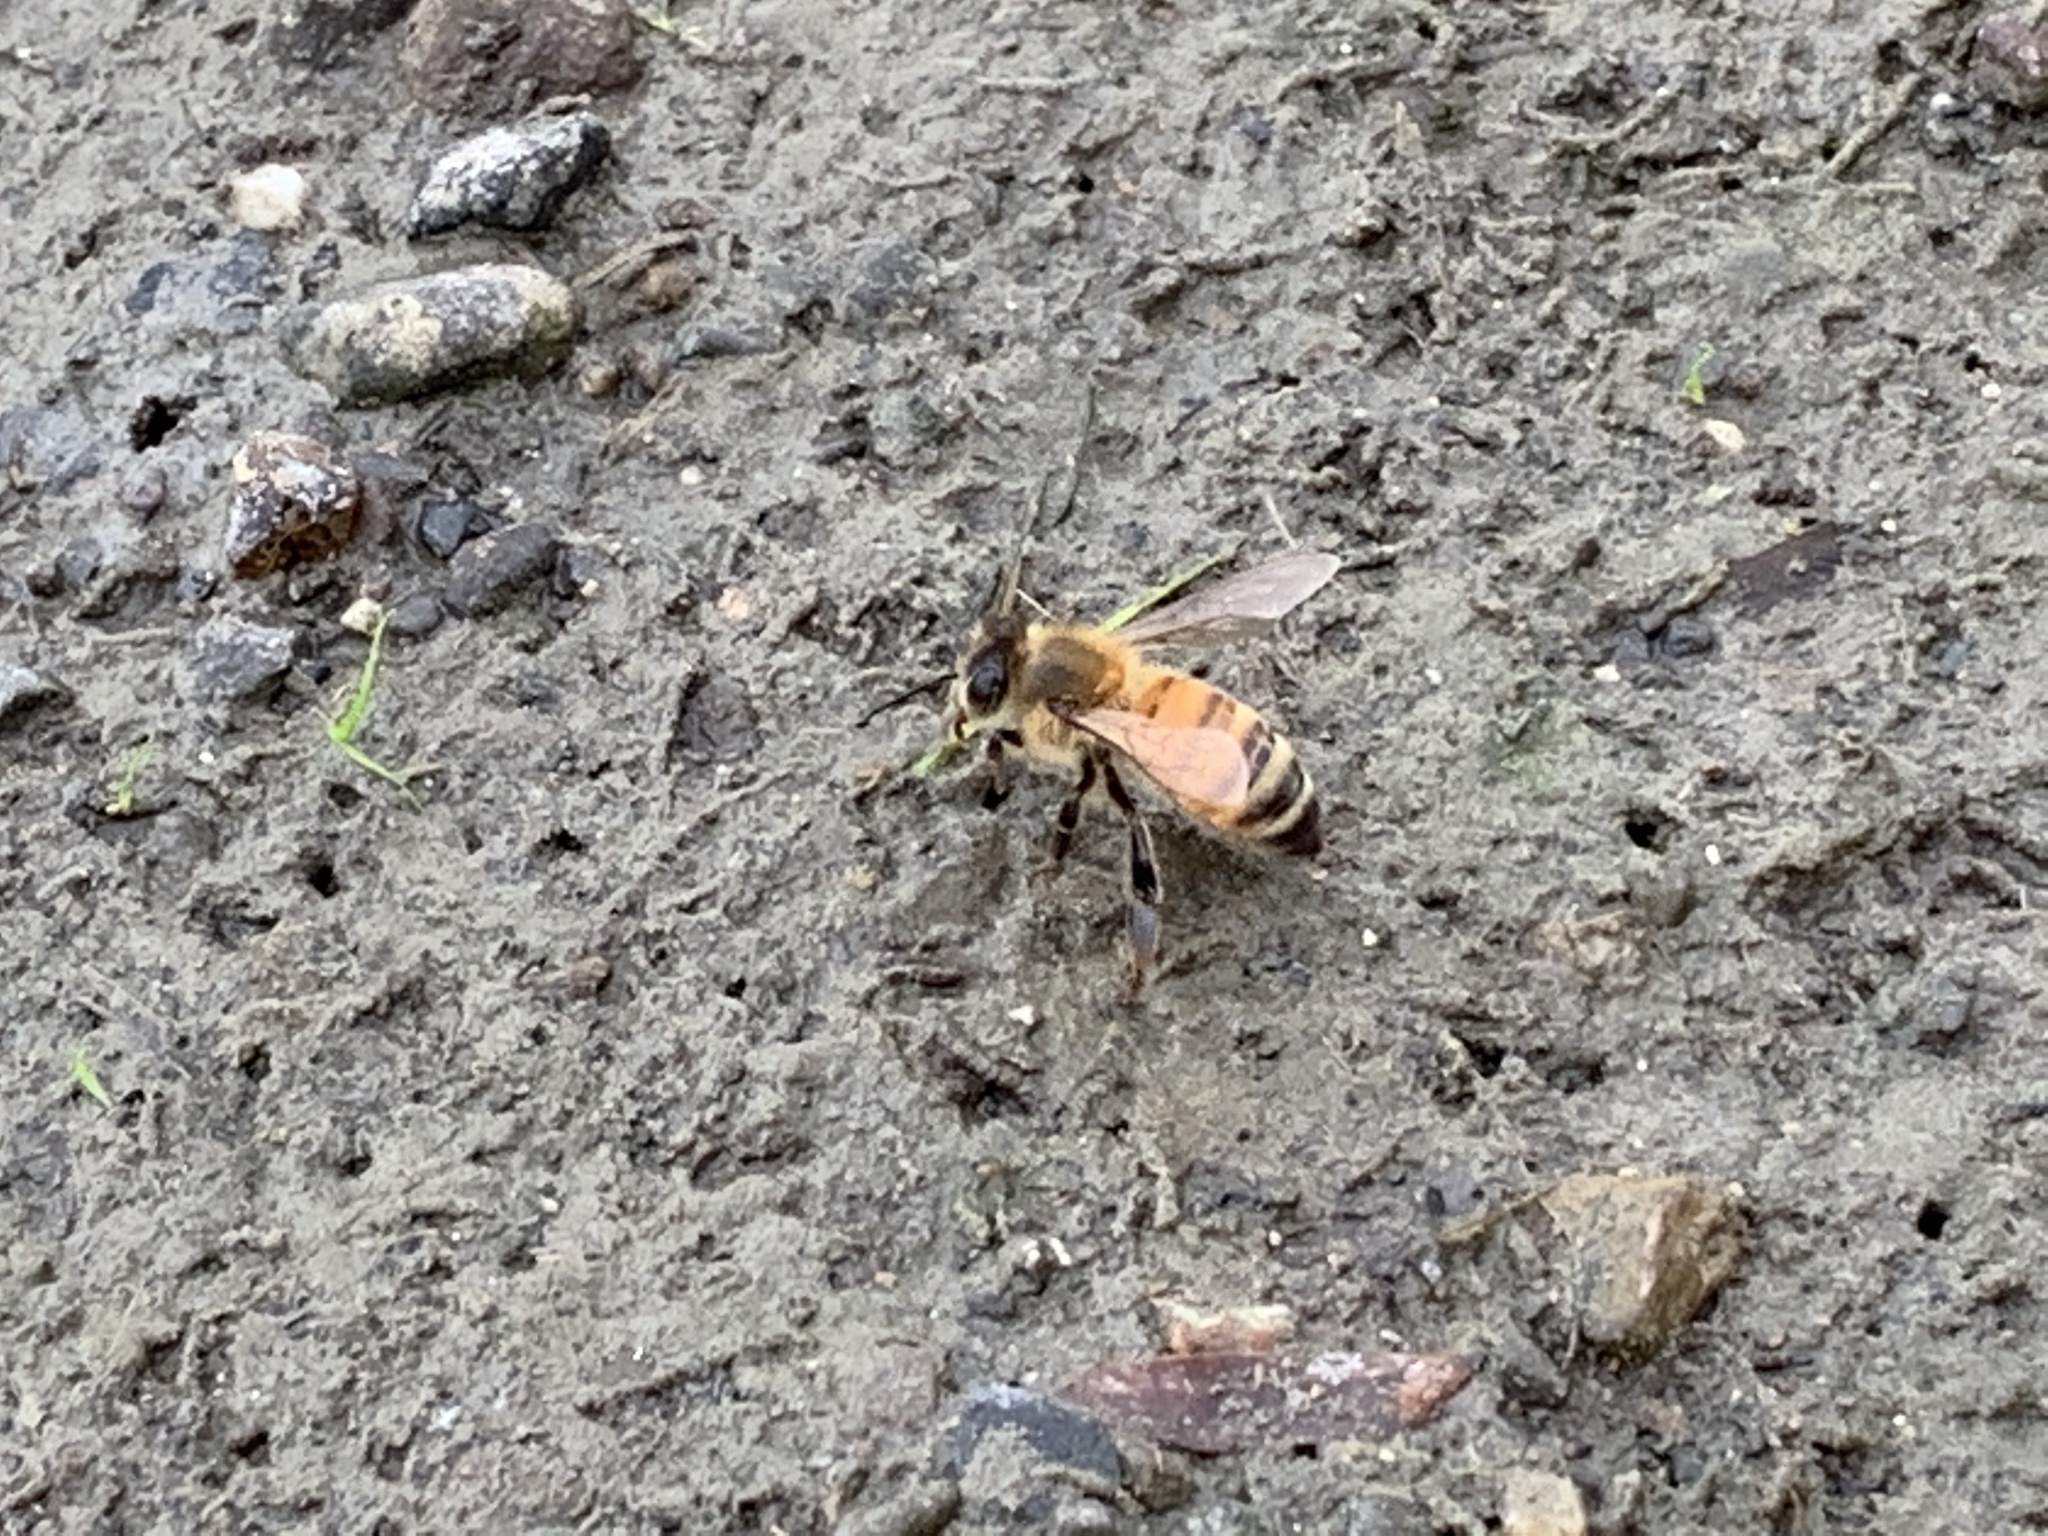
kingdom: Animalia
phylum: Arthropoda
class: Insecta
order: Hymenoptera
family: Apidae
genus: Apis
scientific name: Apis mellifera
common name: Honey bee
